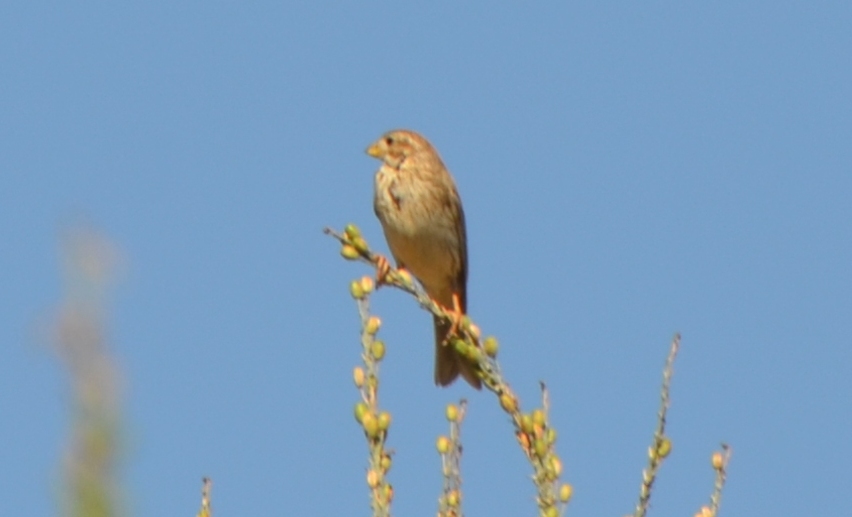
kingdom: Animalia
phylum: Chordata
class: Aves
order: Passeriformes
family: Emberizidae
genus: Emberiza
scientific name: Emberiza calandra
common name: Corn bunting
